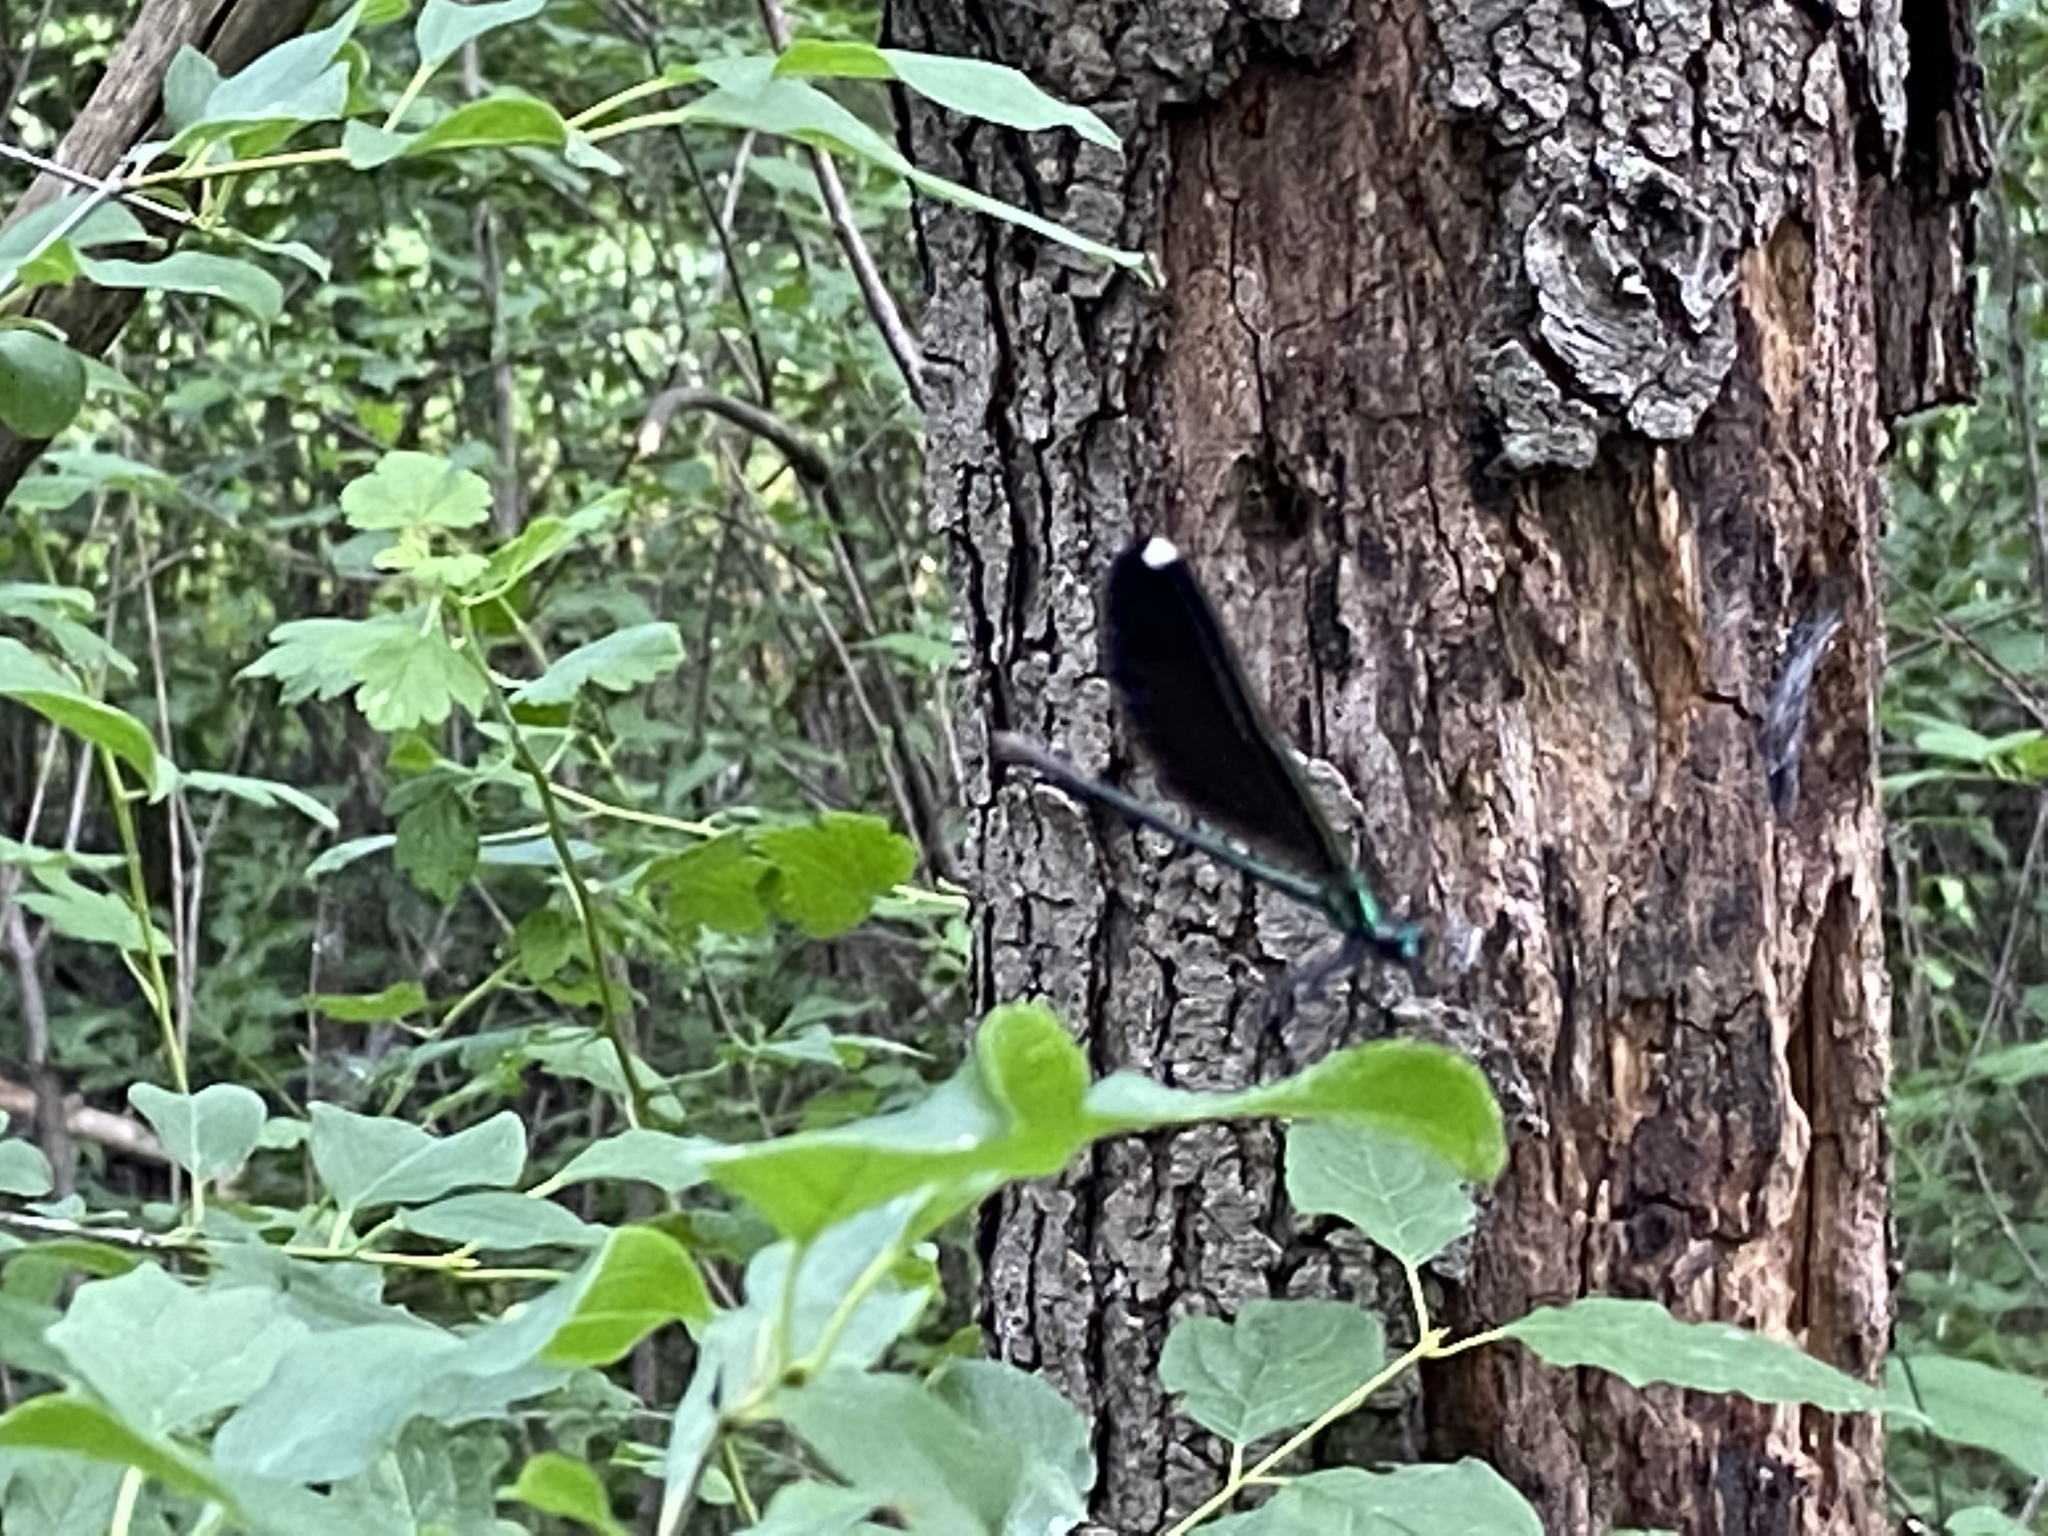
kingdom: Animalia
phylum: Arthropoda
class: Insecta
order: Odonata
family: Calopterygidae
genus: Calopteryx
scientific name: Calopteryx maculata
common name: Ebony jewelwing
